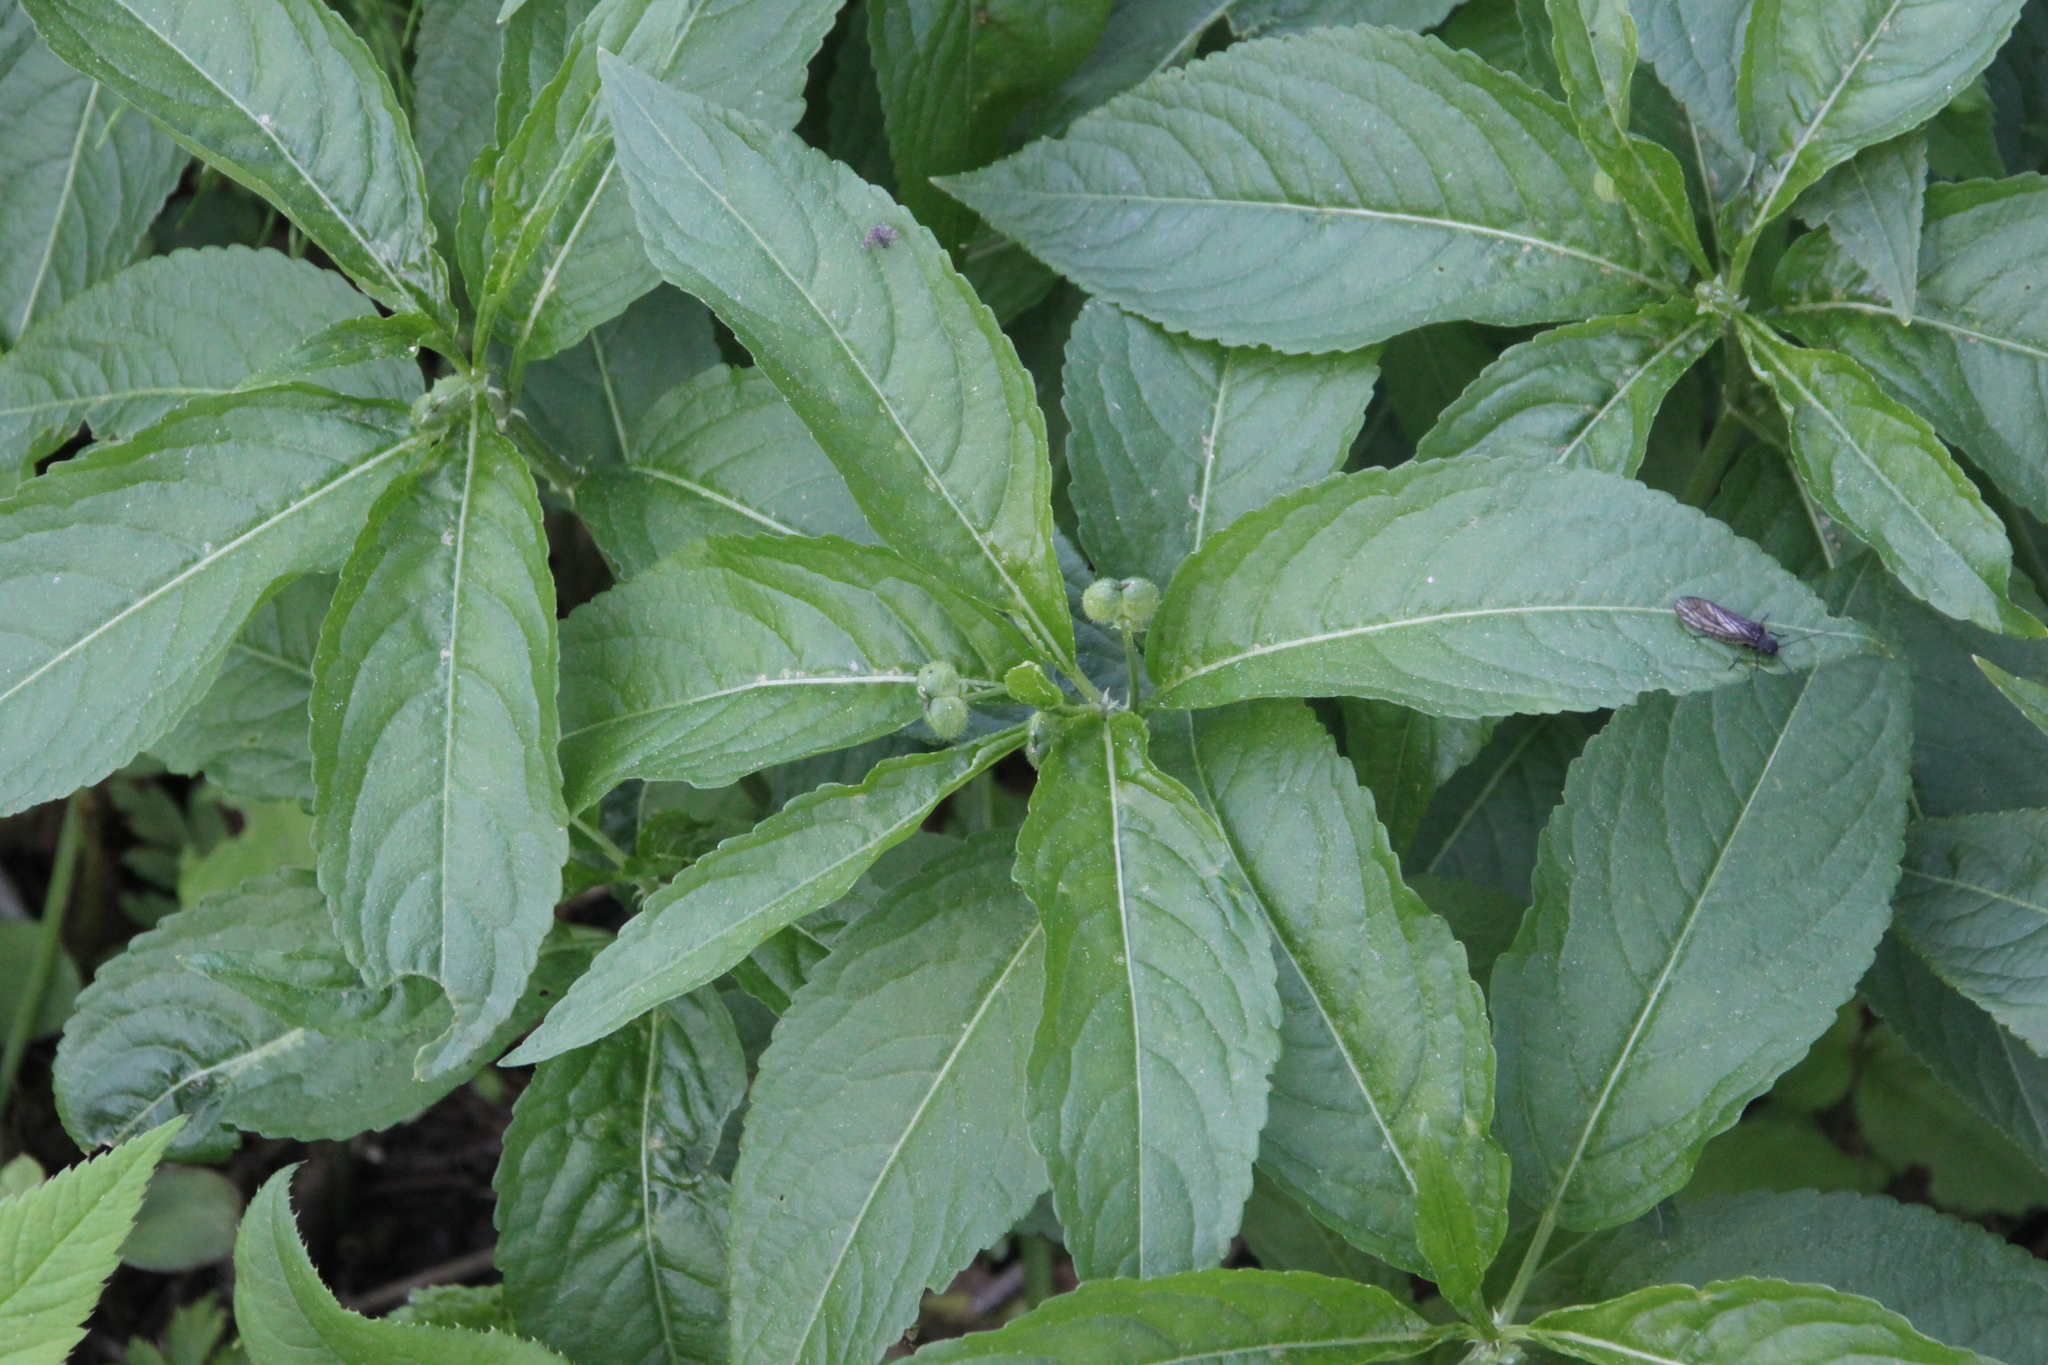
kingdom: Plantae
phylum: Tracheophyta
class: Magnoliopsida
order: Malpighiales
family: Euphorbiaceae
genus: Mercurialis
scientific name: Mercurialis perennis
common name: Dog mercury
